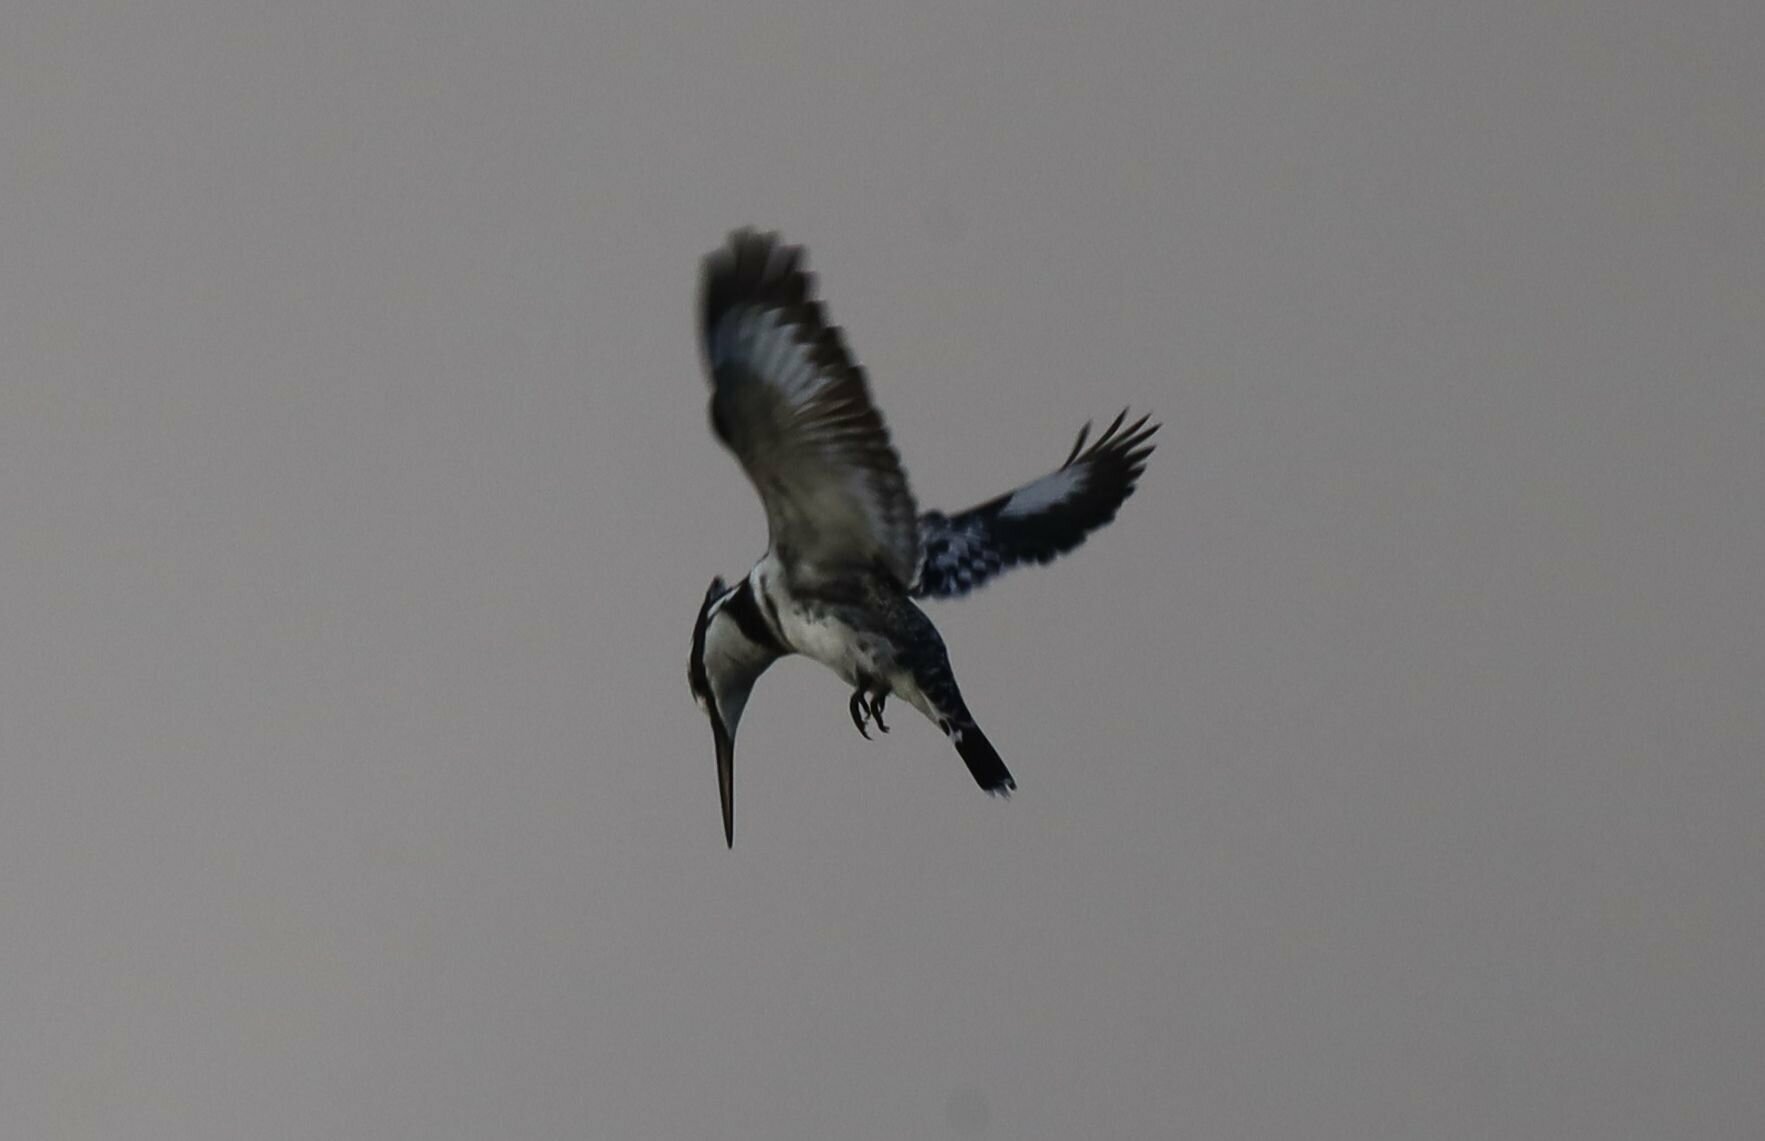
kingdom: Animalia
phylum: Chordata
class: Aves
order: Coraciiformes
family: Alcedinidae
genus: Ceryle
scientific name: Ceryle rudis
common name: Pied kingfisher
